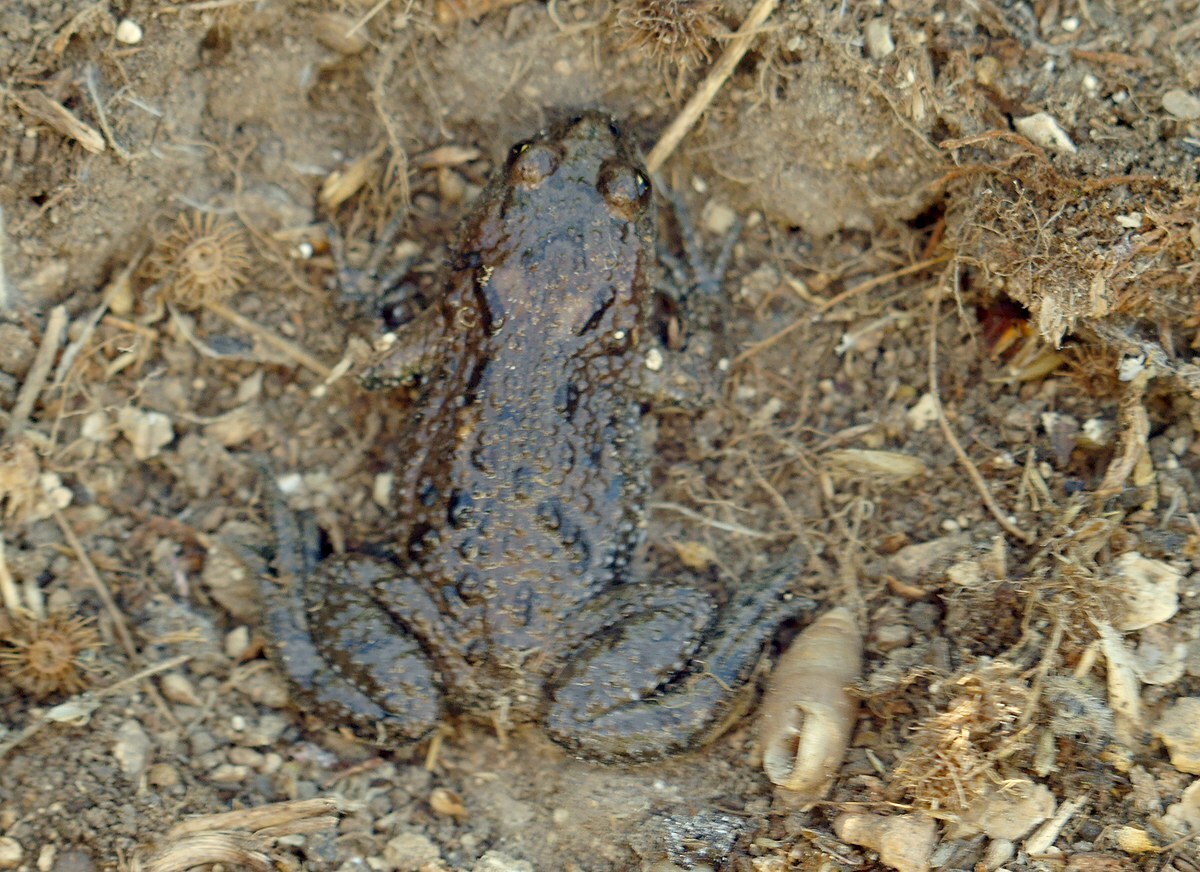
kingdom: Animalia
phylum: Chordata
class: Amphibia
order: Anura
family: Bombinatoridae
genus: Bombina
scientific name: Bombina bombina
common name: Fire-bellied toad
